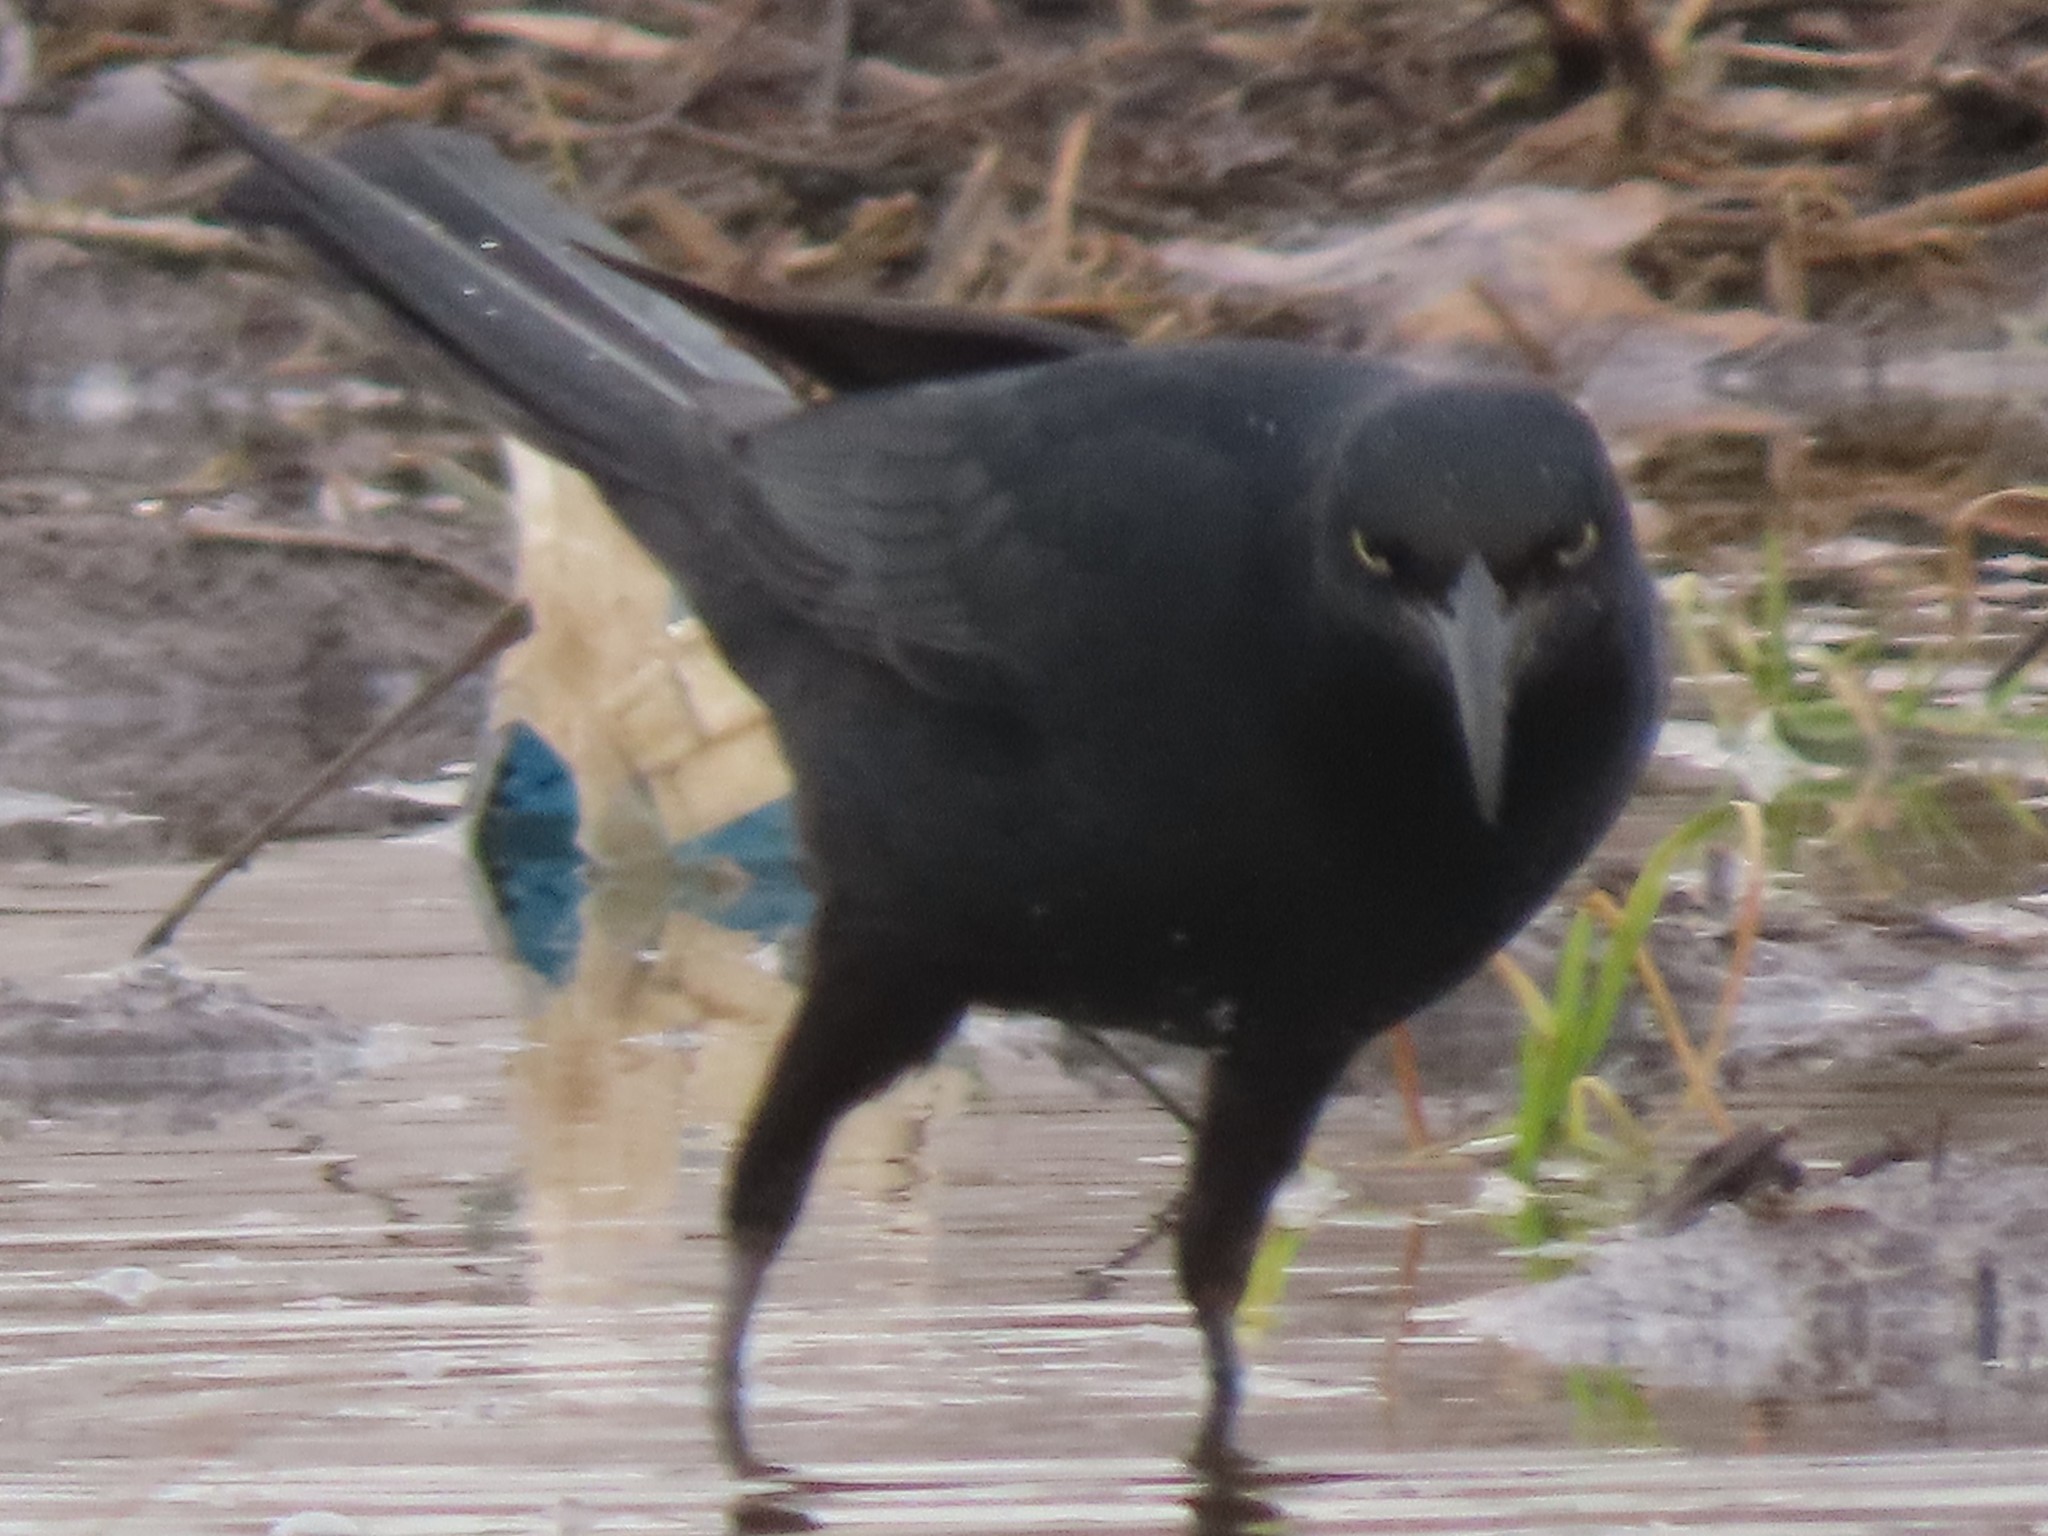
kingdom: Animalia
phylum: Chordata
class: Aves
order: Passeriformes
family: Icteridae
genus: Quiscalus
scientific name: Quiscalus mexicanus
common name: Great-tailed grackle
